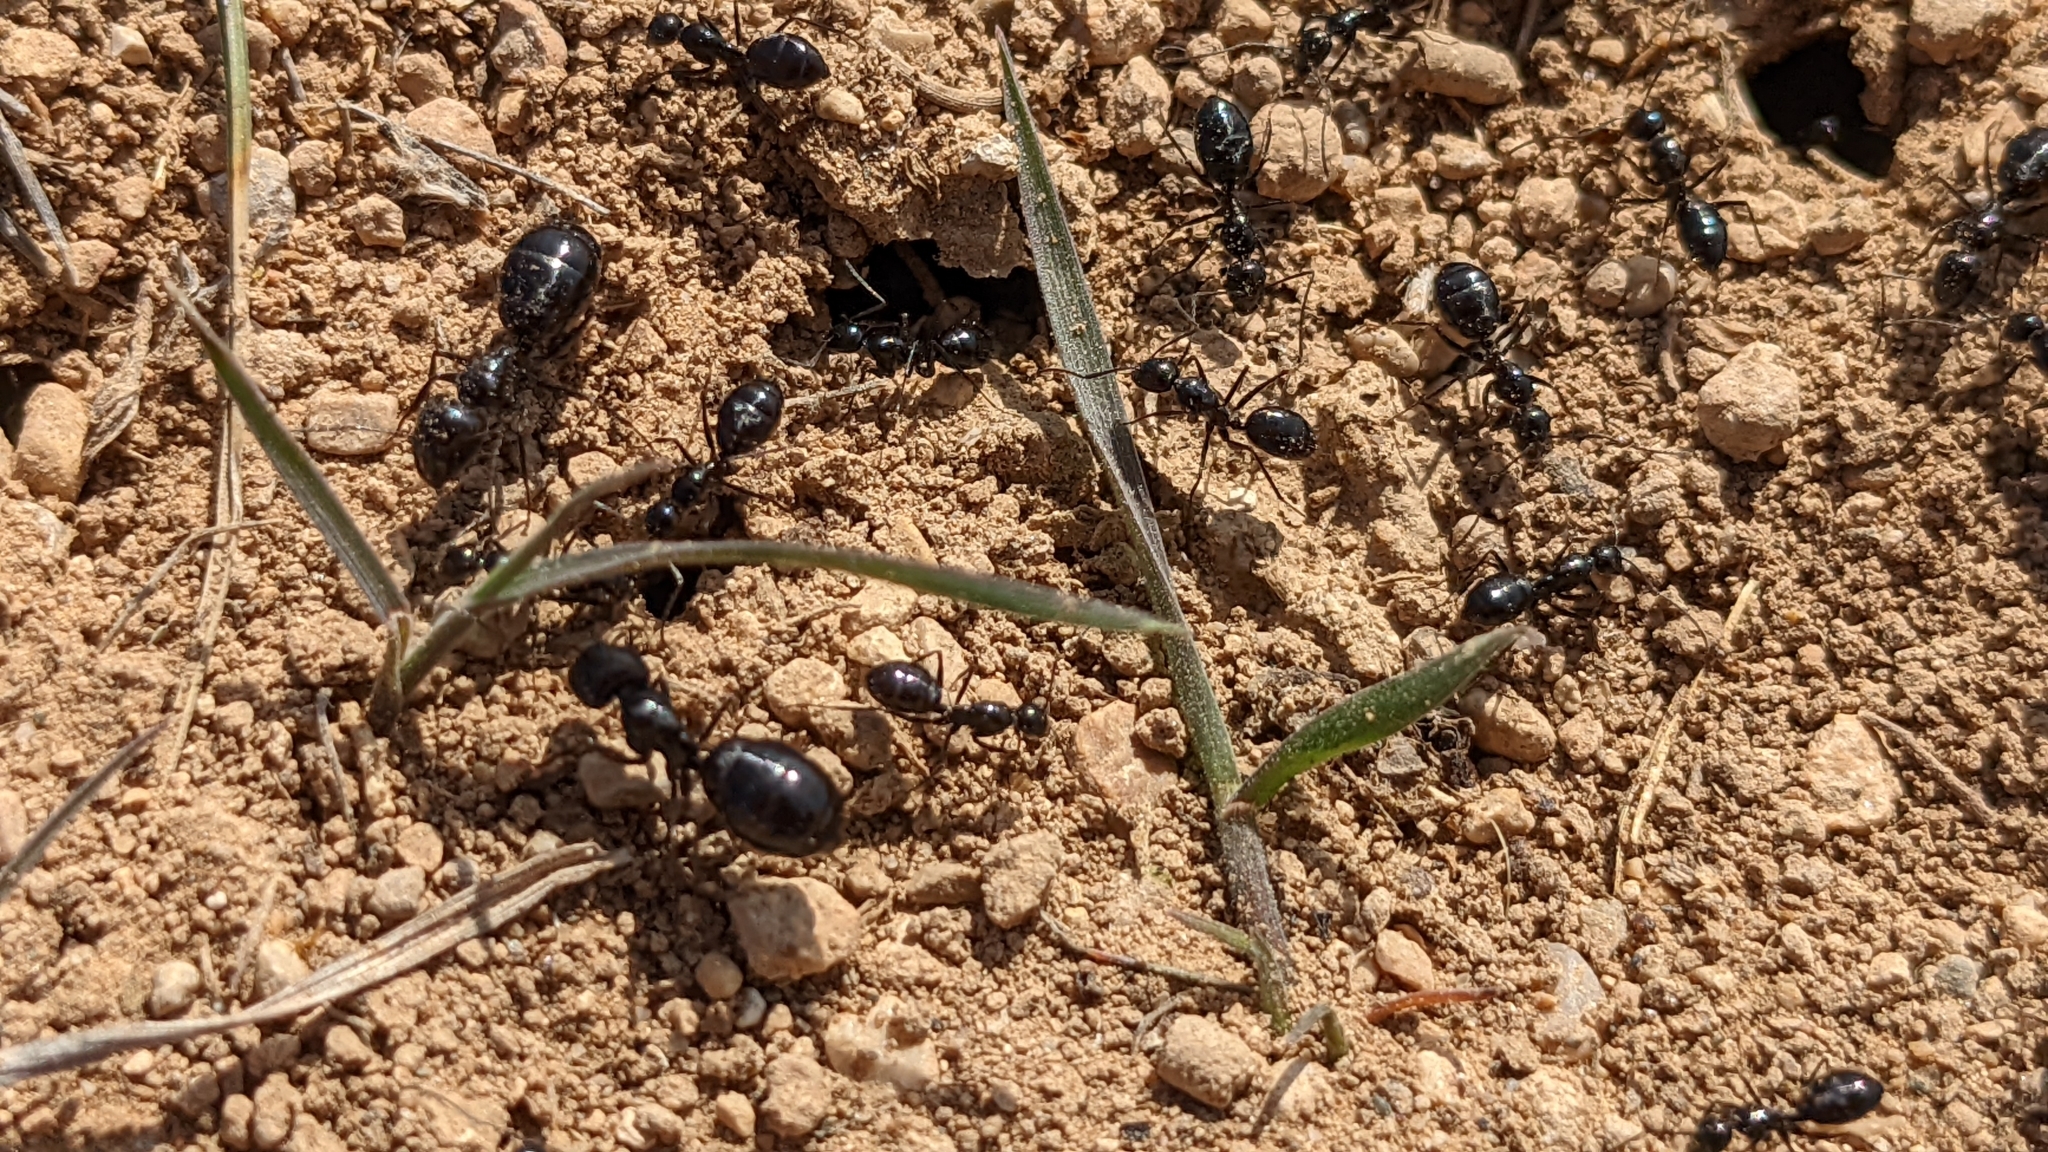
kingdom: Animalia
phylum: Arthropoda
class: Insecta
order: Hymenoptera
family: Formicidae
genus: Camponotus
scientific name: Camponotus foreli
